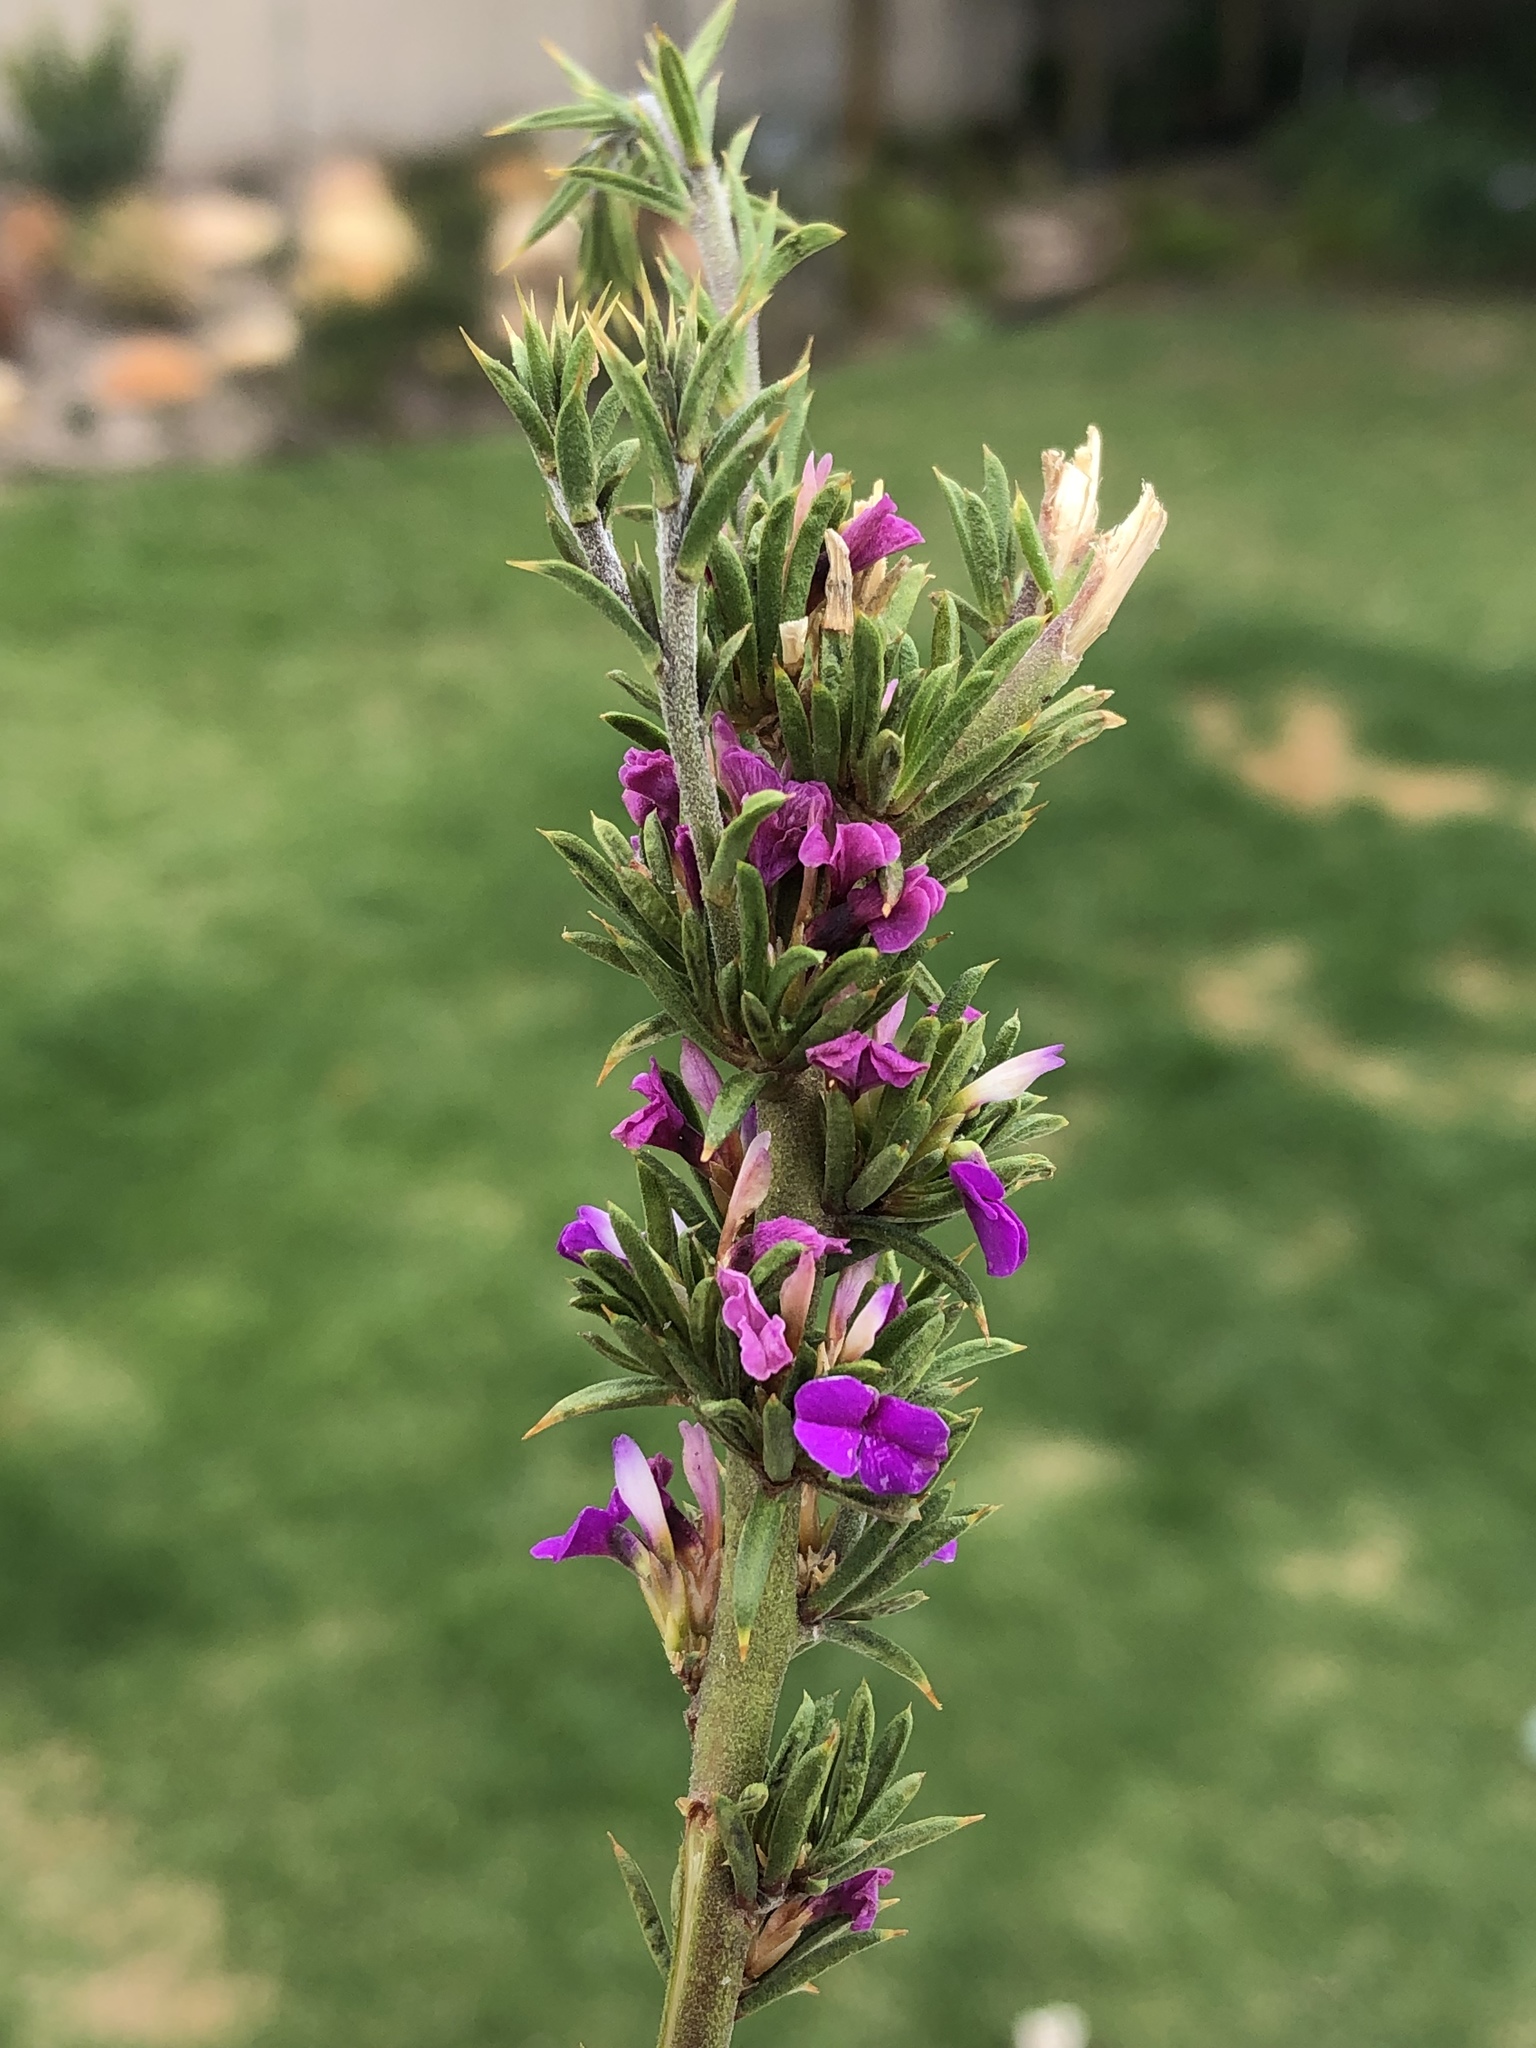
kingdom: Plantae
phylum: Tracheophyta
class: Magnoliopsida
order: Fabales
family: Polygalaceae
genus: Muraltia
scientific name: Muraltia heisteria
